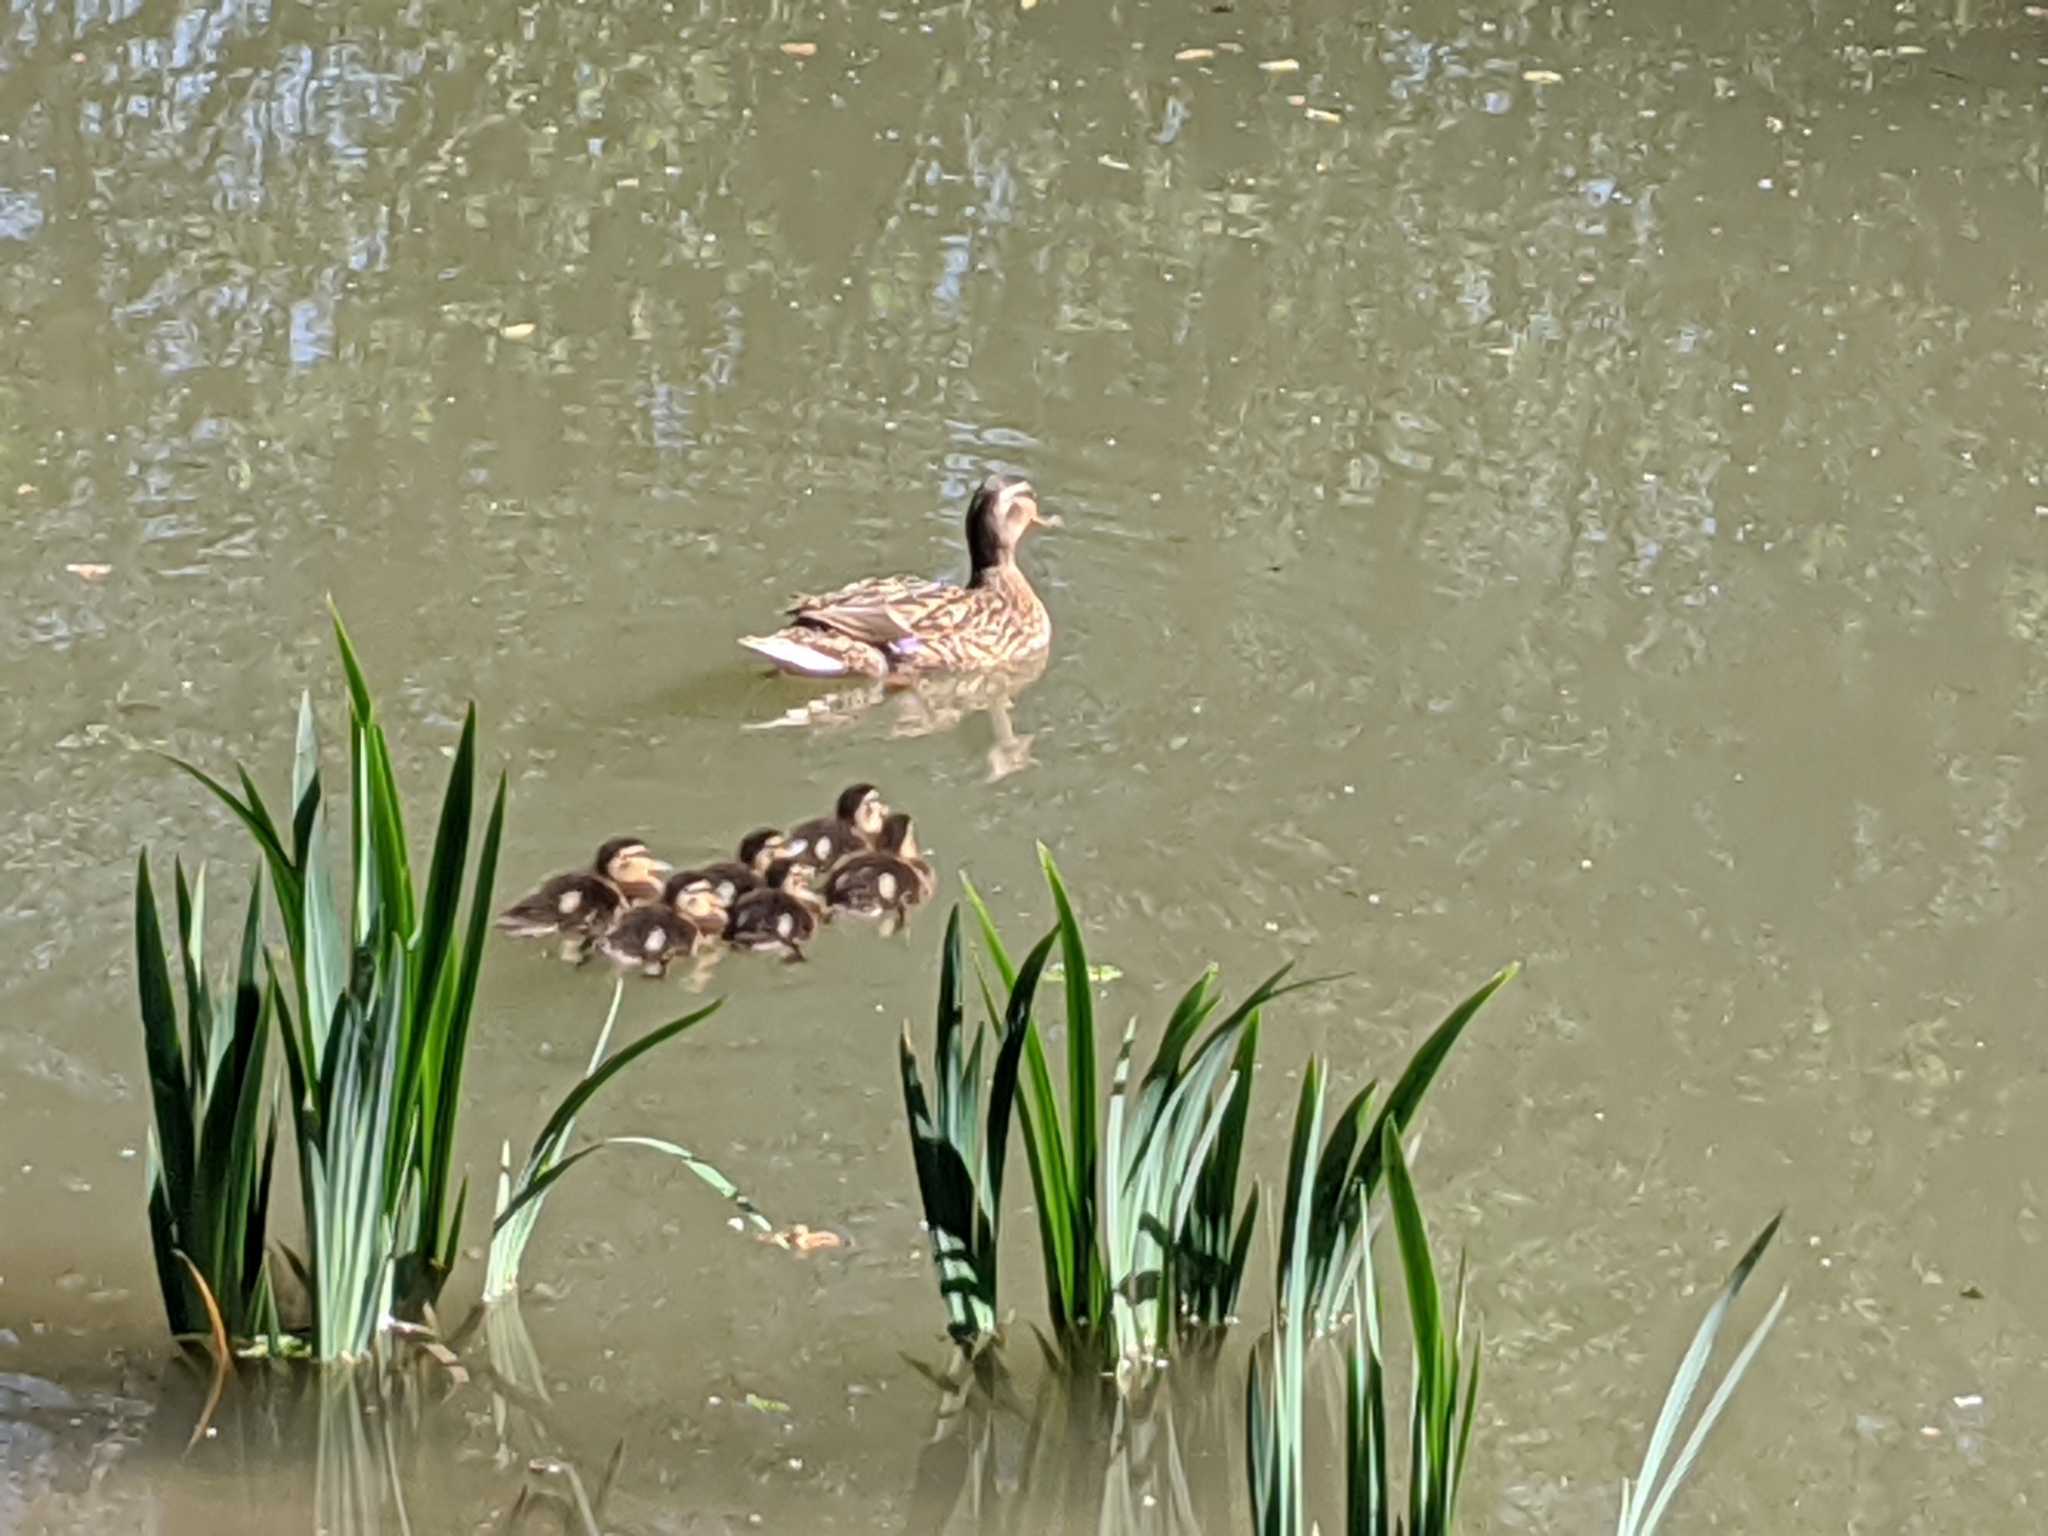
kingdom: Animalia
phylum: Chordata
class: Aves
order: Anseriformes
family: Anatidae
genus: Anas
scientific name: Anas platyrhynchos
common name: Mallard
